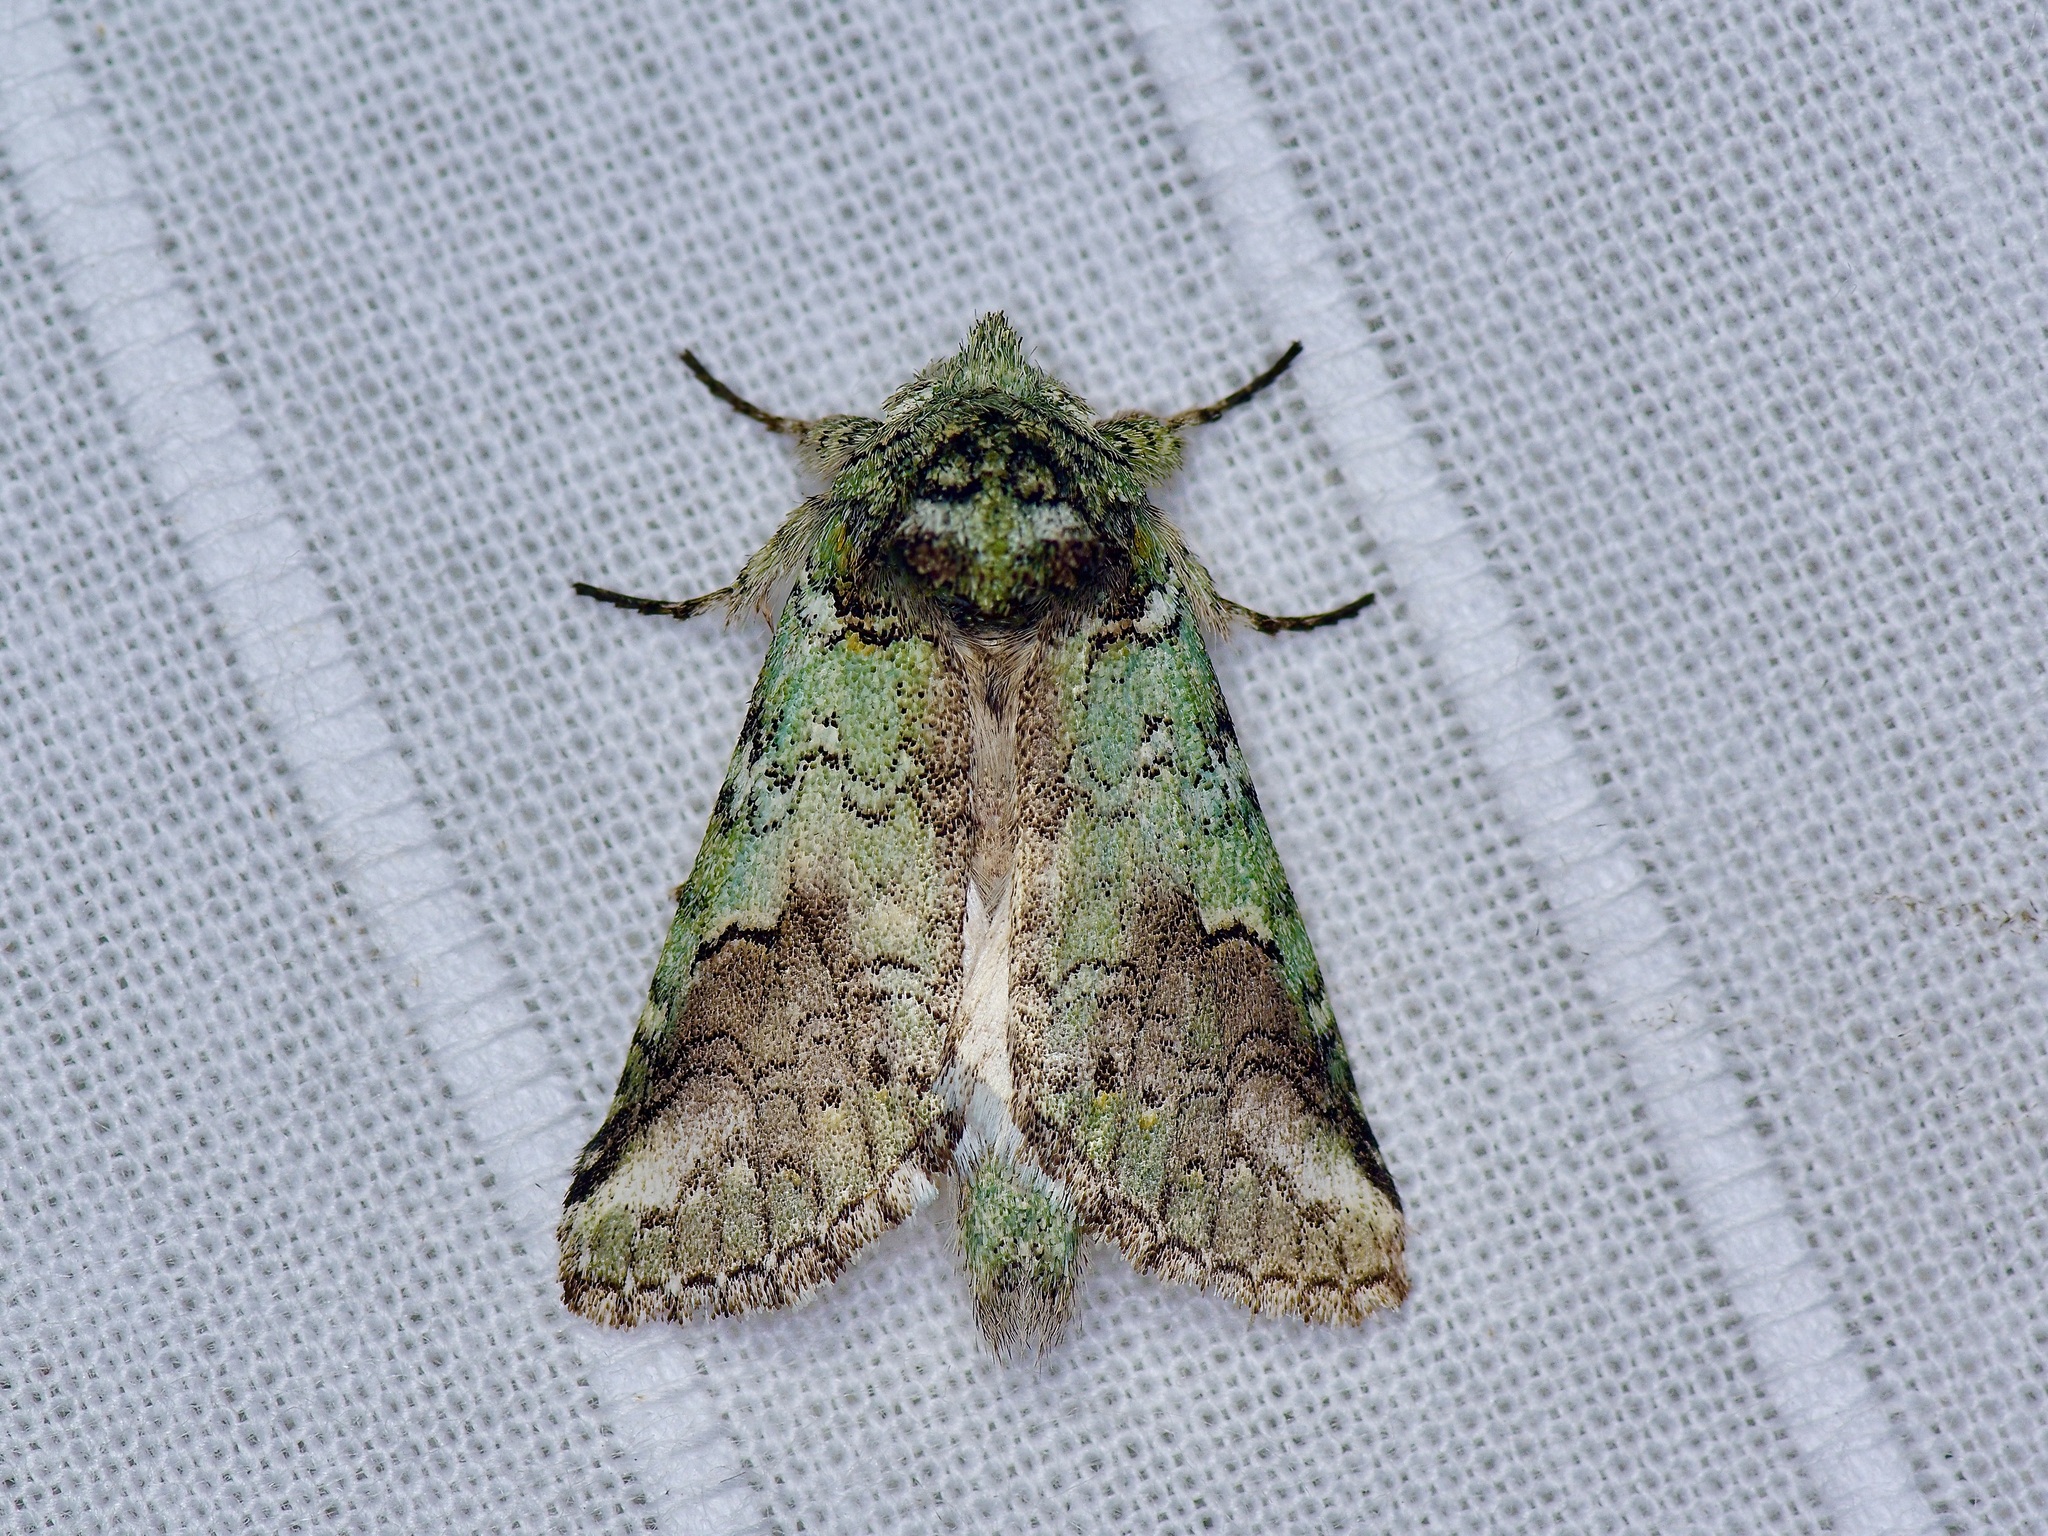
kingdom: Animalia
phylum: Arthropoda
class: Insecta
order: Lepidoptera
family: Notodontidae
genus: Litodonta
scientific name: Litodonta hydromeli
